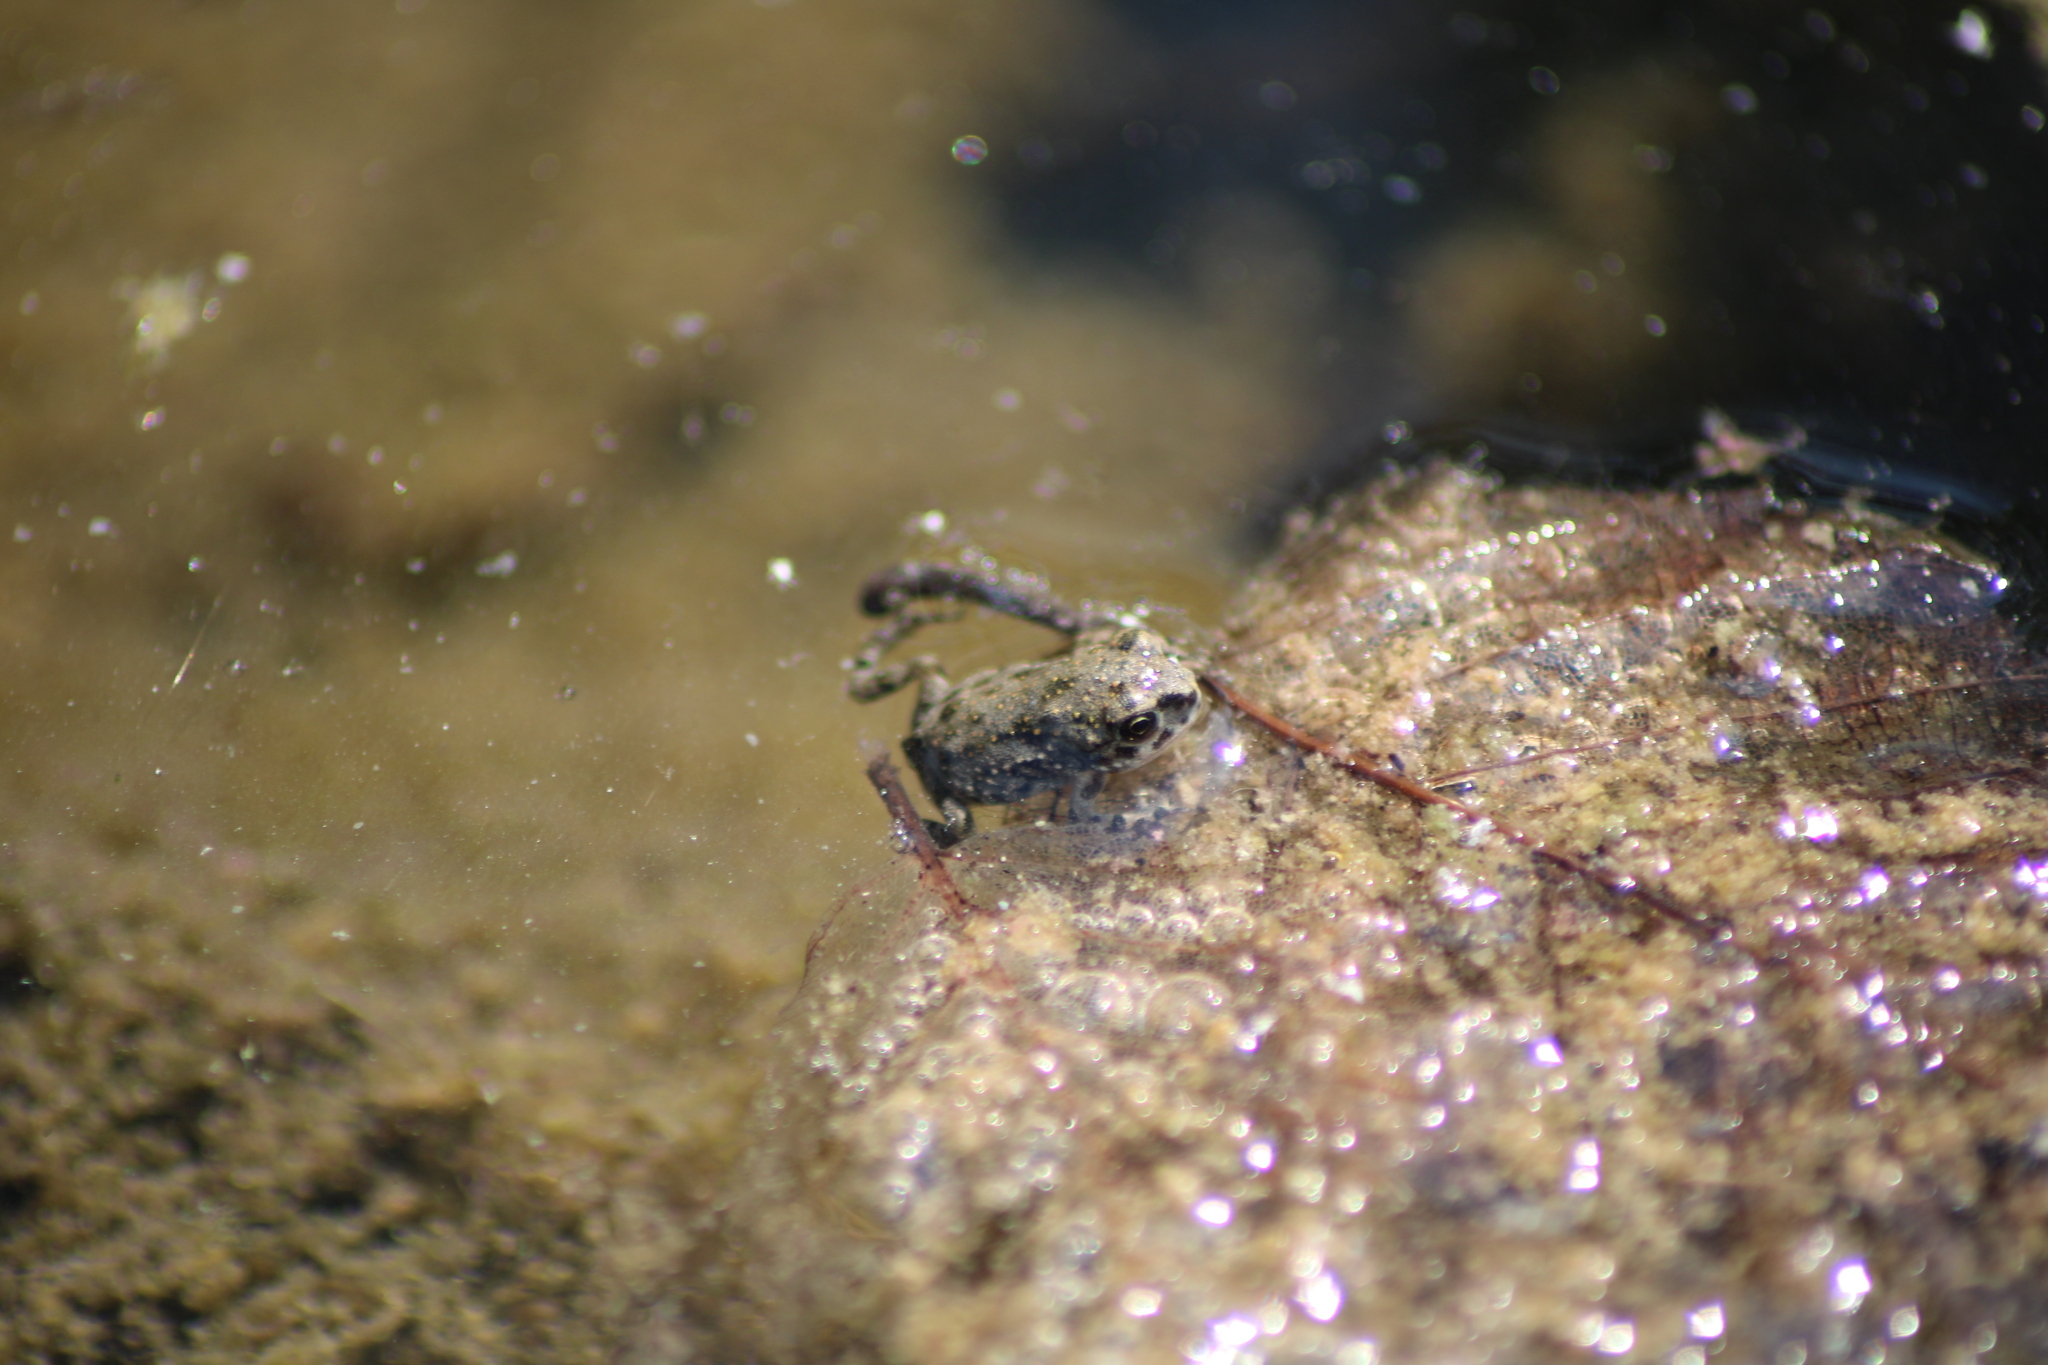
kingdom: Animalia
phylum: Chordata
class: Amphibia
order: Anura
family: Bufonidae
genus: Bufotes
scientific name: Bufotes viridis
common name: European green toad
